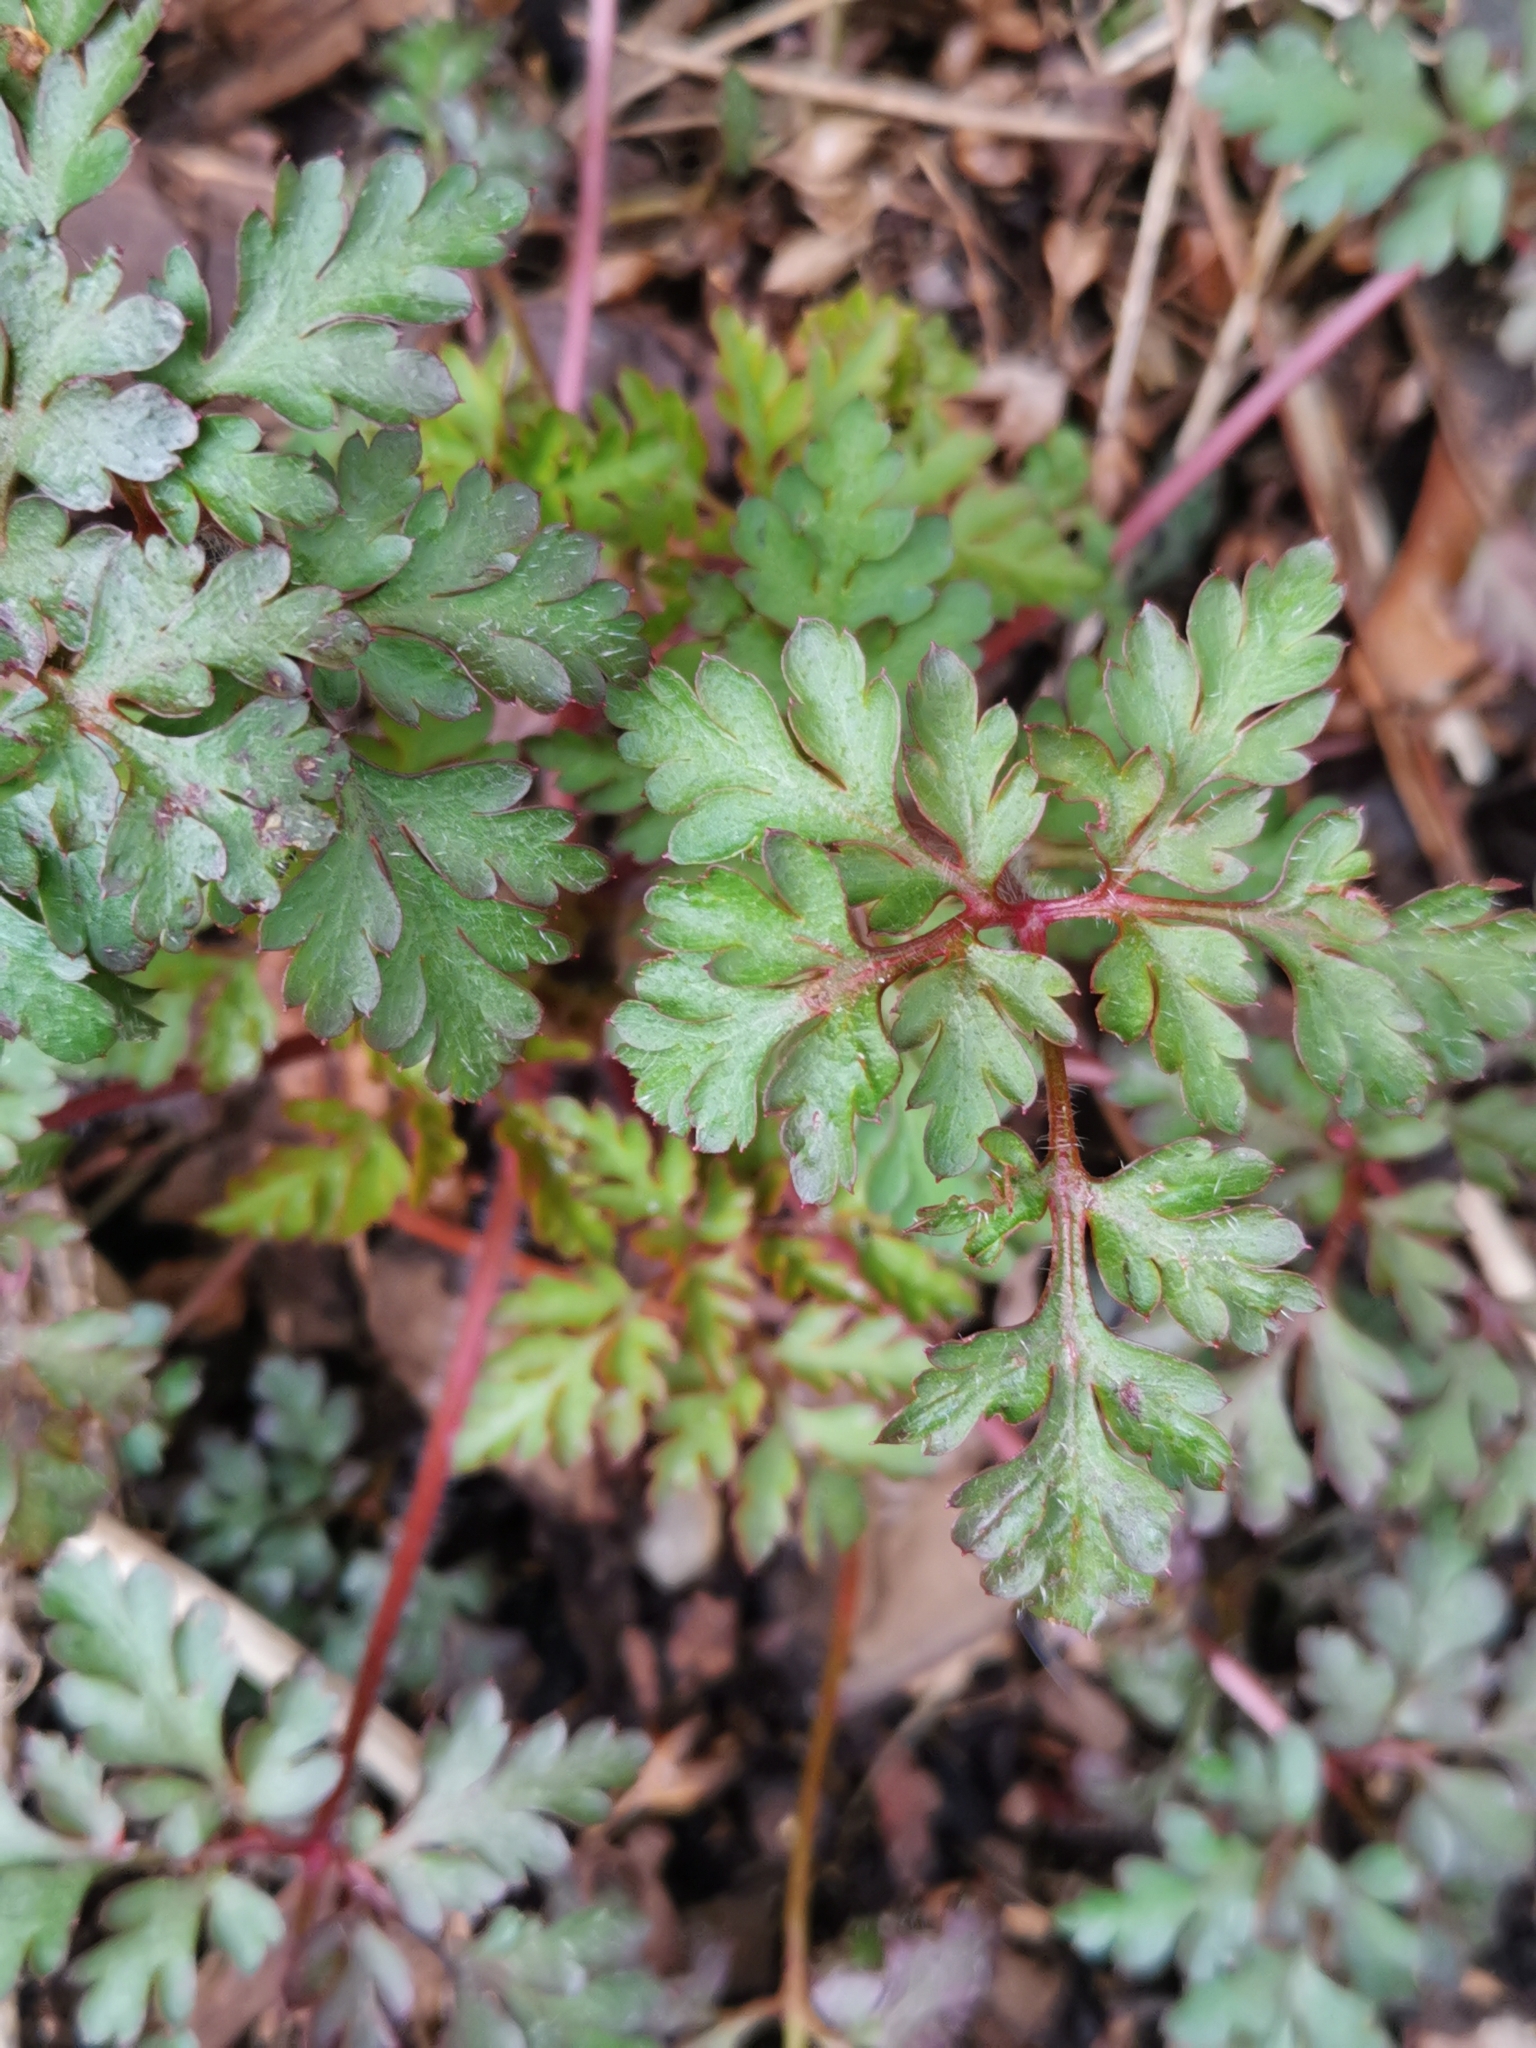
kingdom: Plantae
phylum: Tracheophyta
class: Magnoliopsida
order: Geraniales
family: Geraniaceae
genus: Geranium
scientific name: Geranium robertianum
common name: Herb-robert
